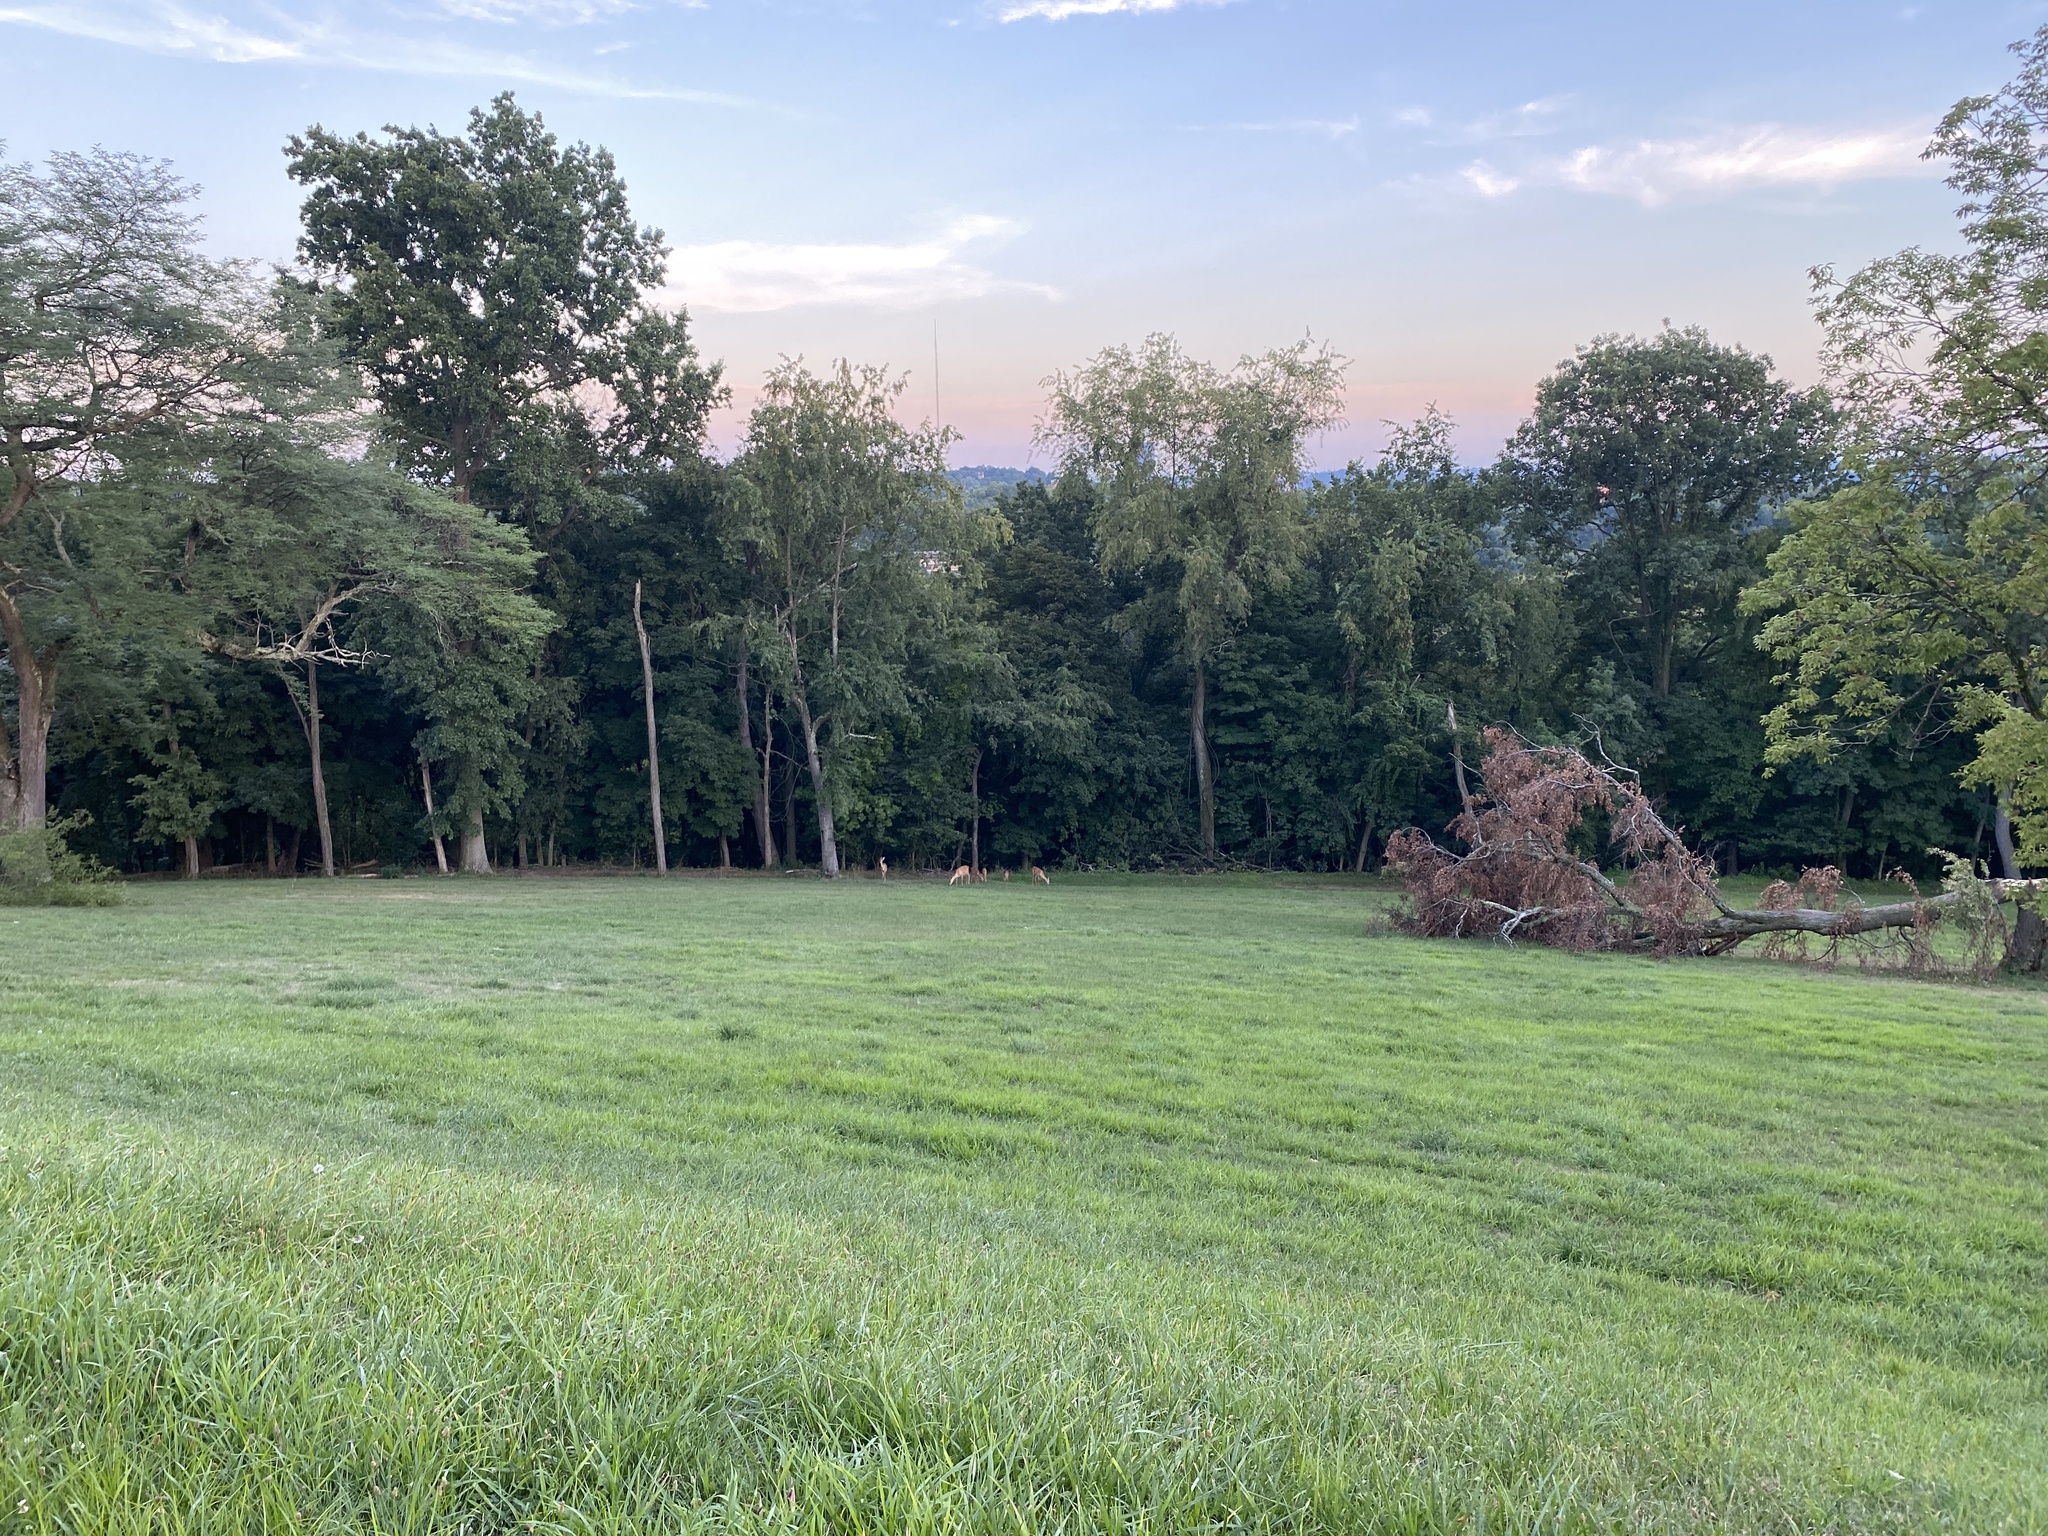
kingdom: Animalia
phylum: Chordata
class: Mammalia
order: Artiodactyla
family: Cervidae
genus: Odocoileus
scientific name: Odocoileus virginianus
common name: White-tailed deer
